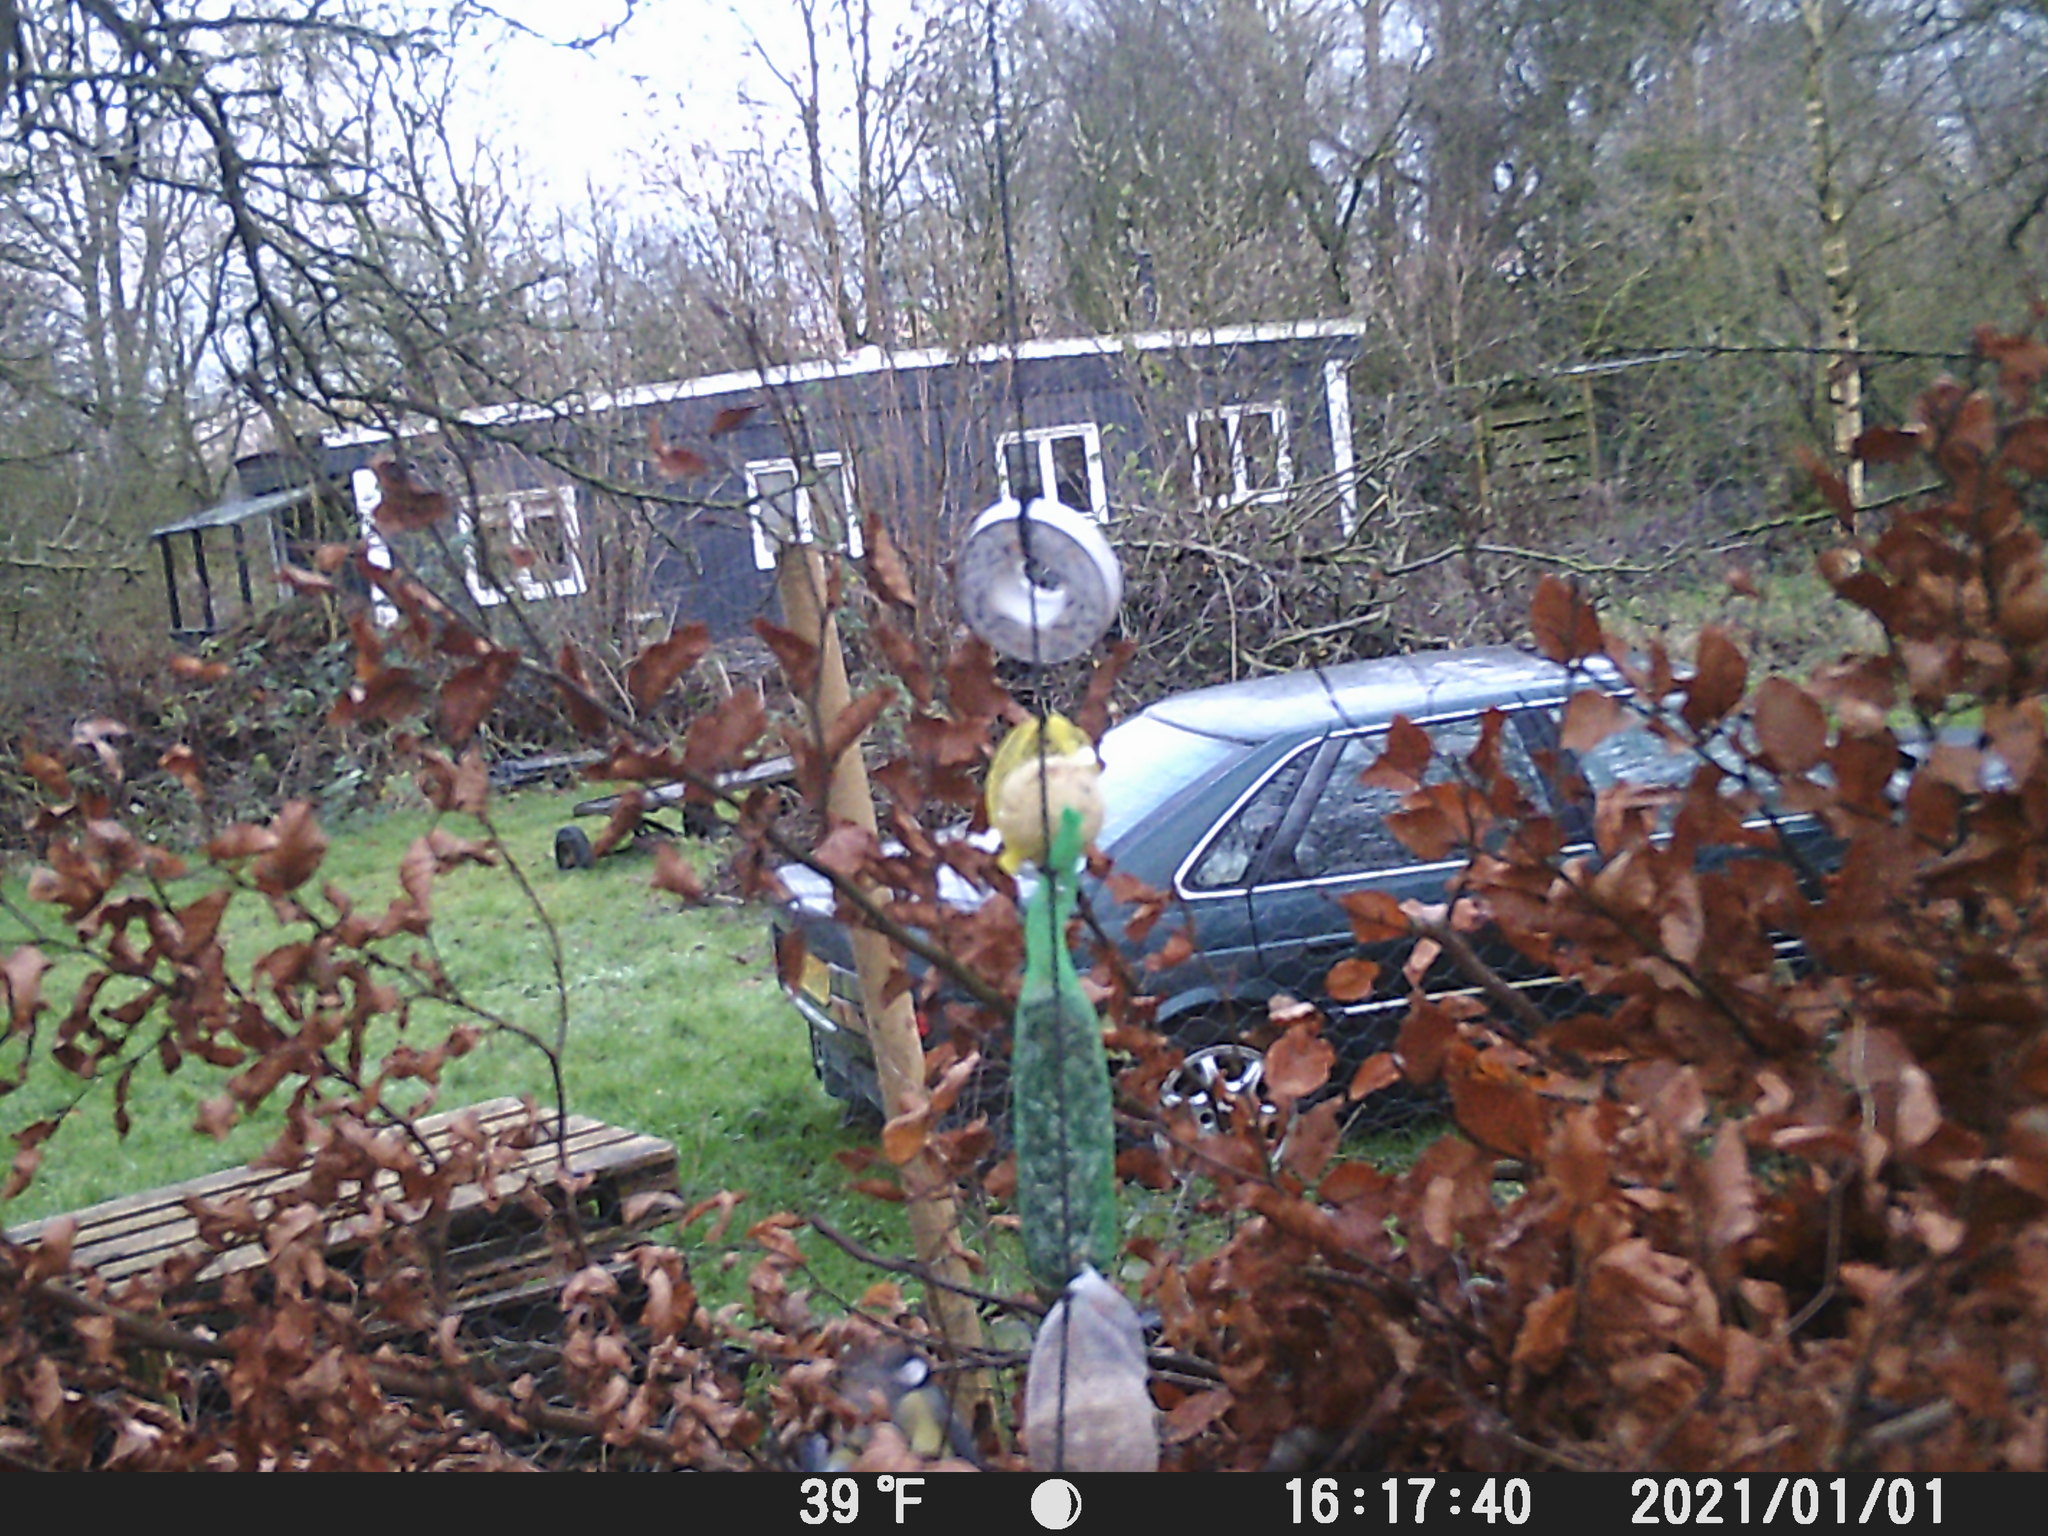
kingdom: Animalia
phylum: Chordata
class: Aves
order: Passeriformes
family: Paridae
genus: Parus
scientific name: Parus major
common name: Great tit
